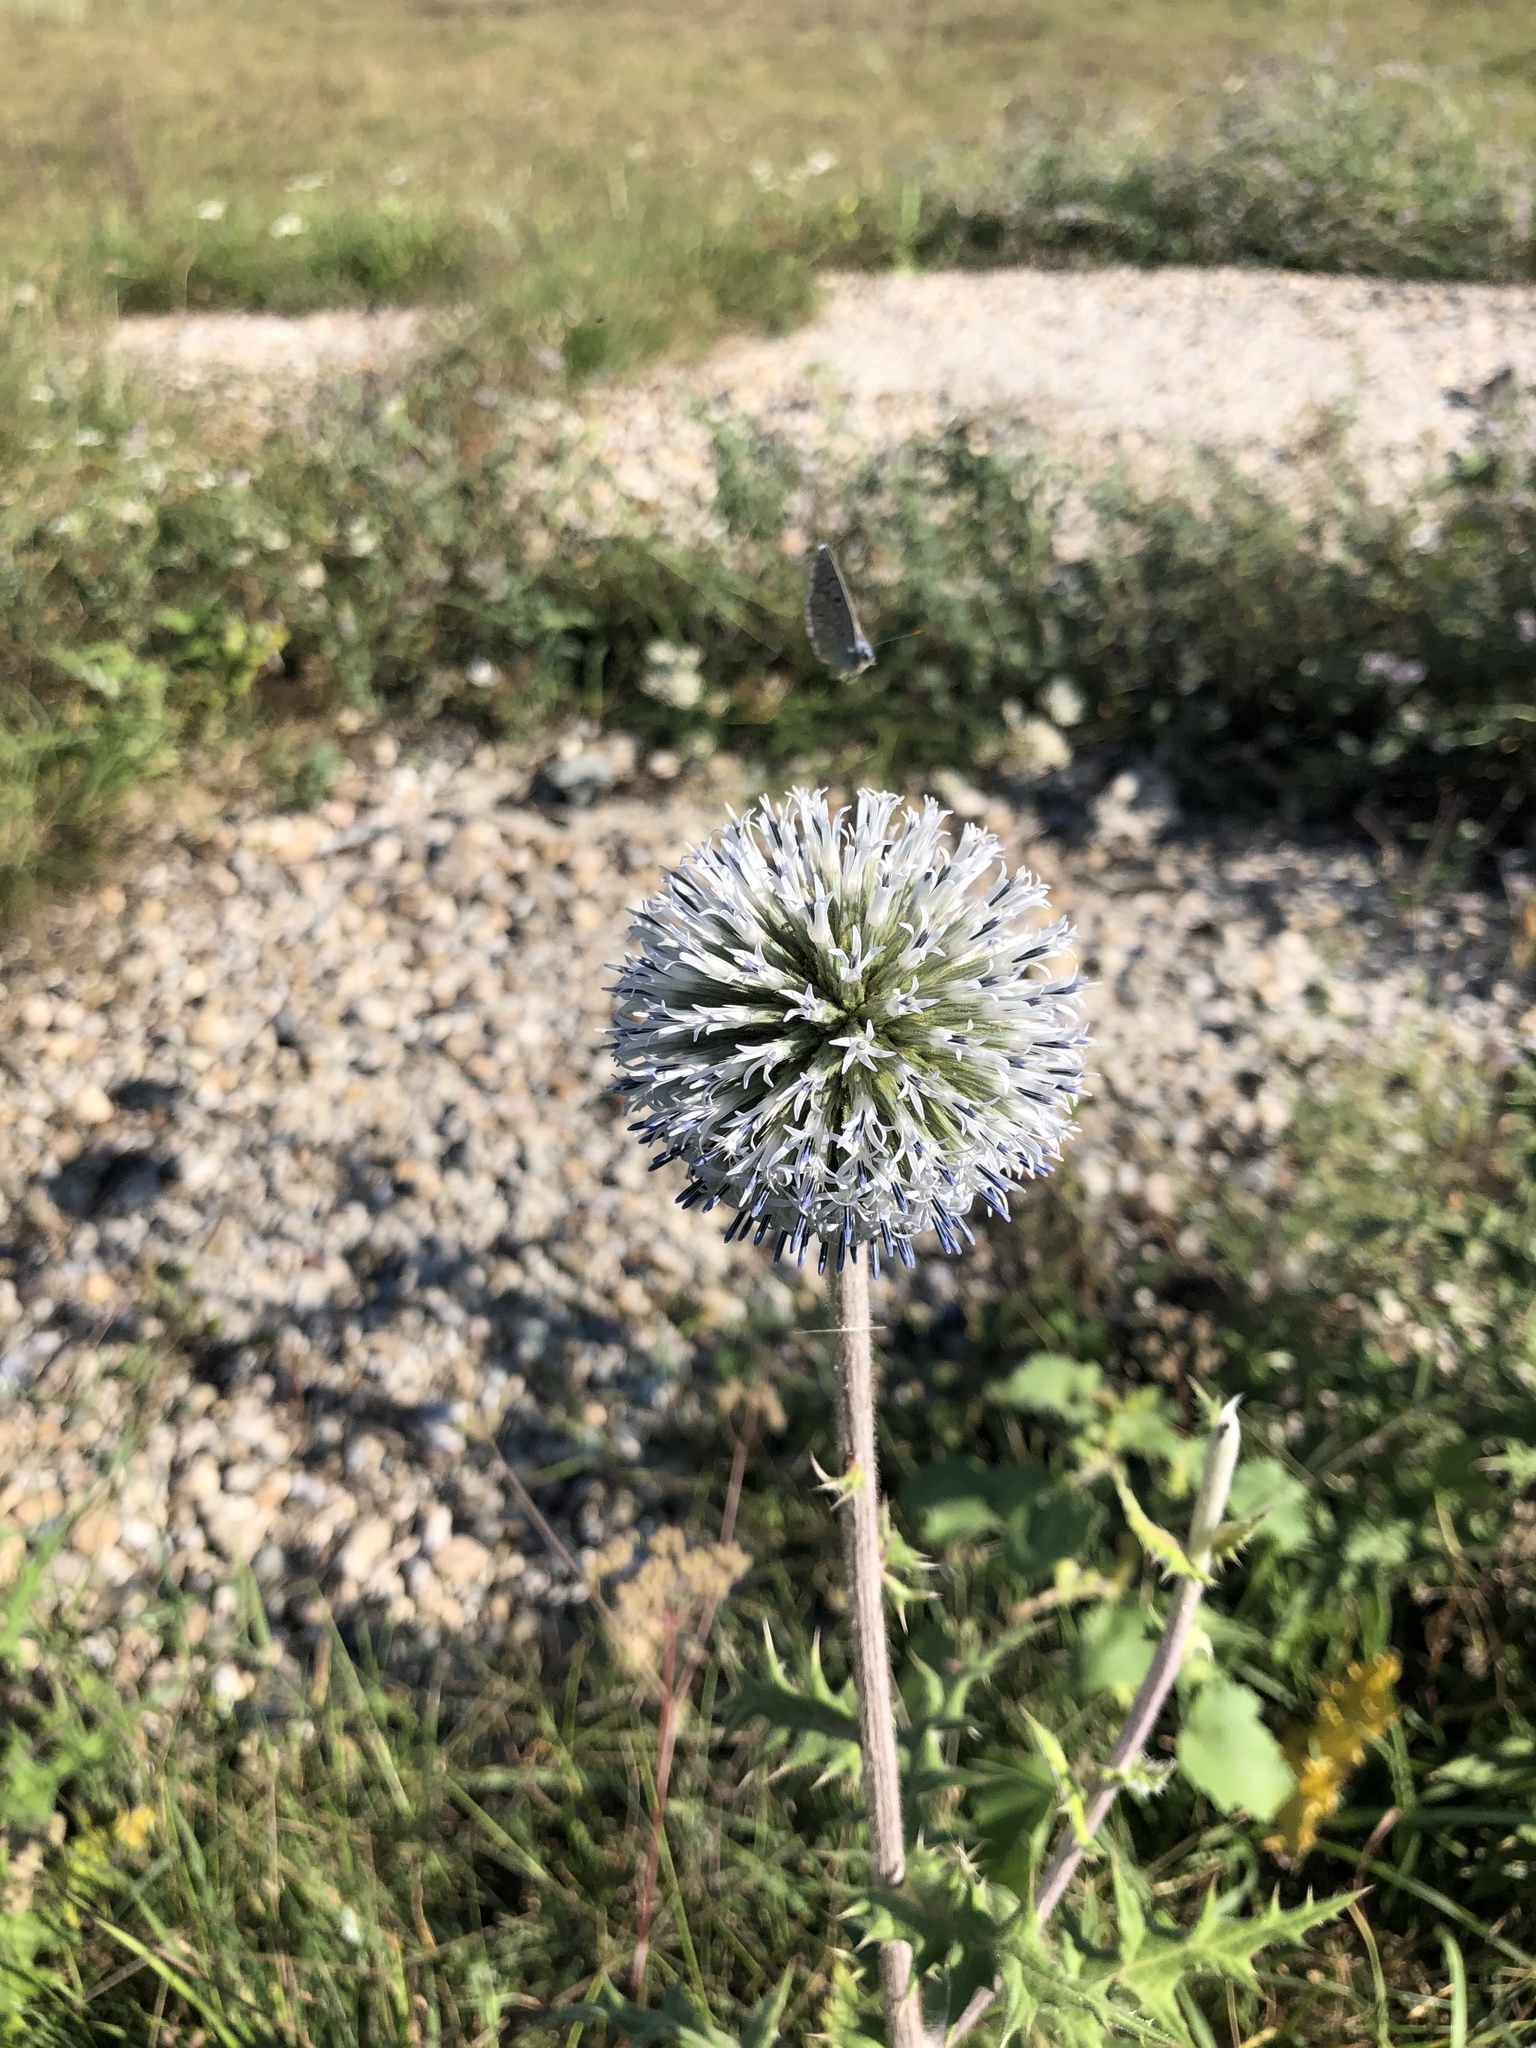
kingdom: Plantae
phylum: Tracheophyta
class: Magnoliopsida
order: Asterales
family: Asteraceae
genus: Echinops
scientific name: Echinops sphaerocephalus
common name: Glandular globe-thistle
